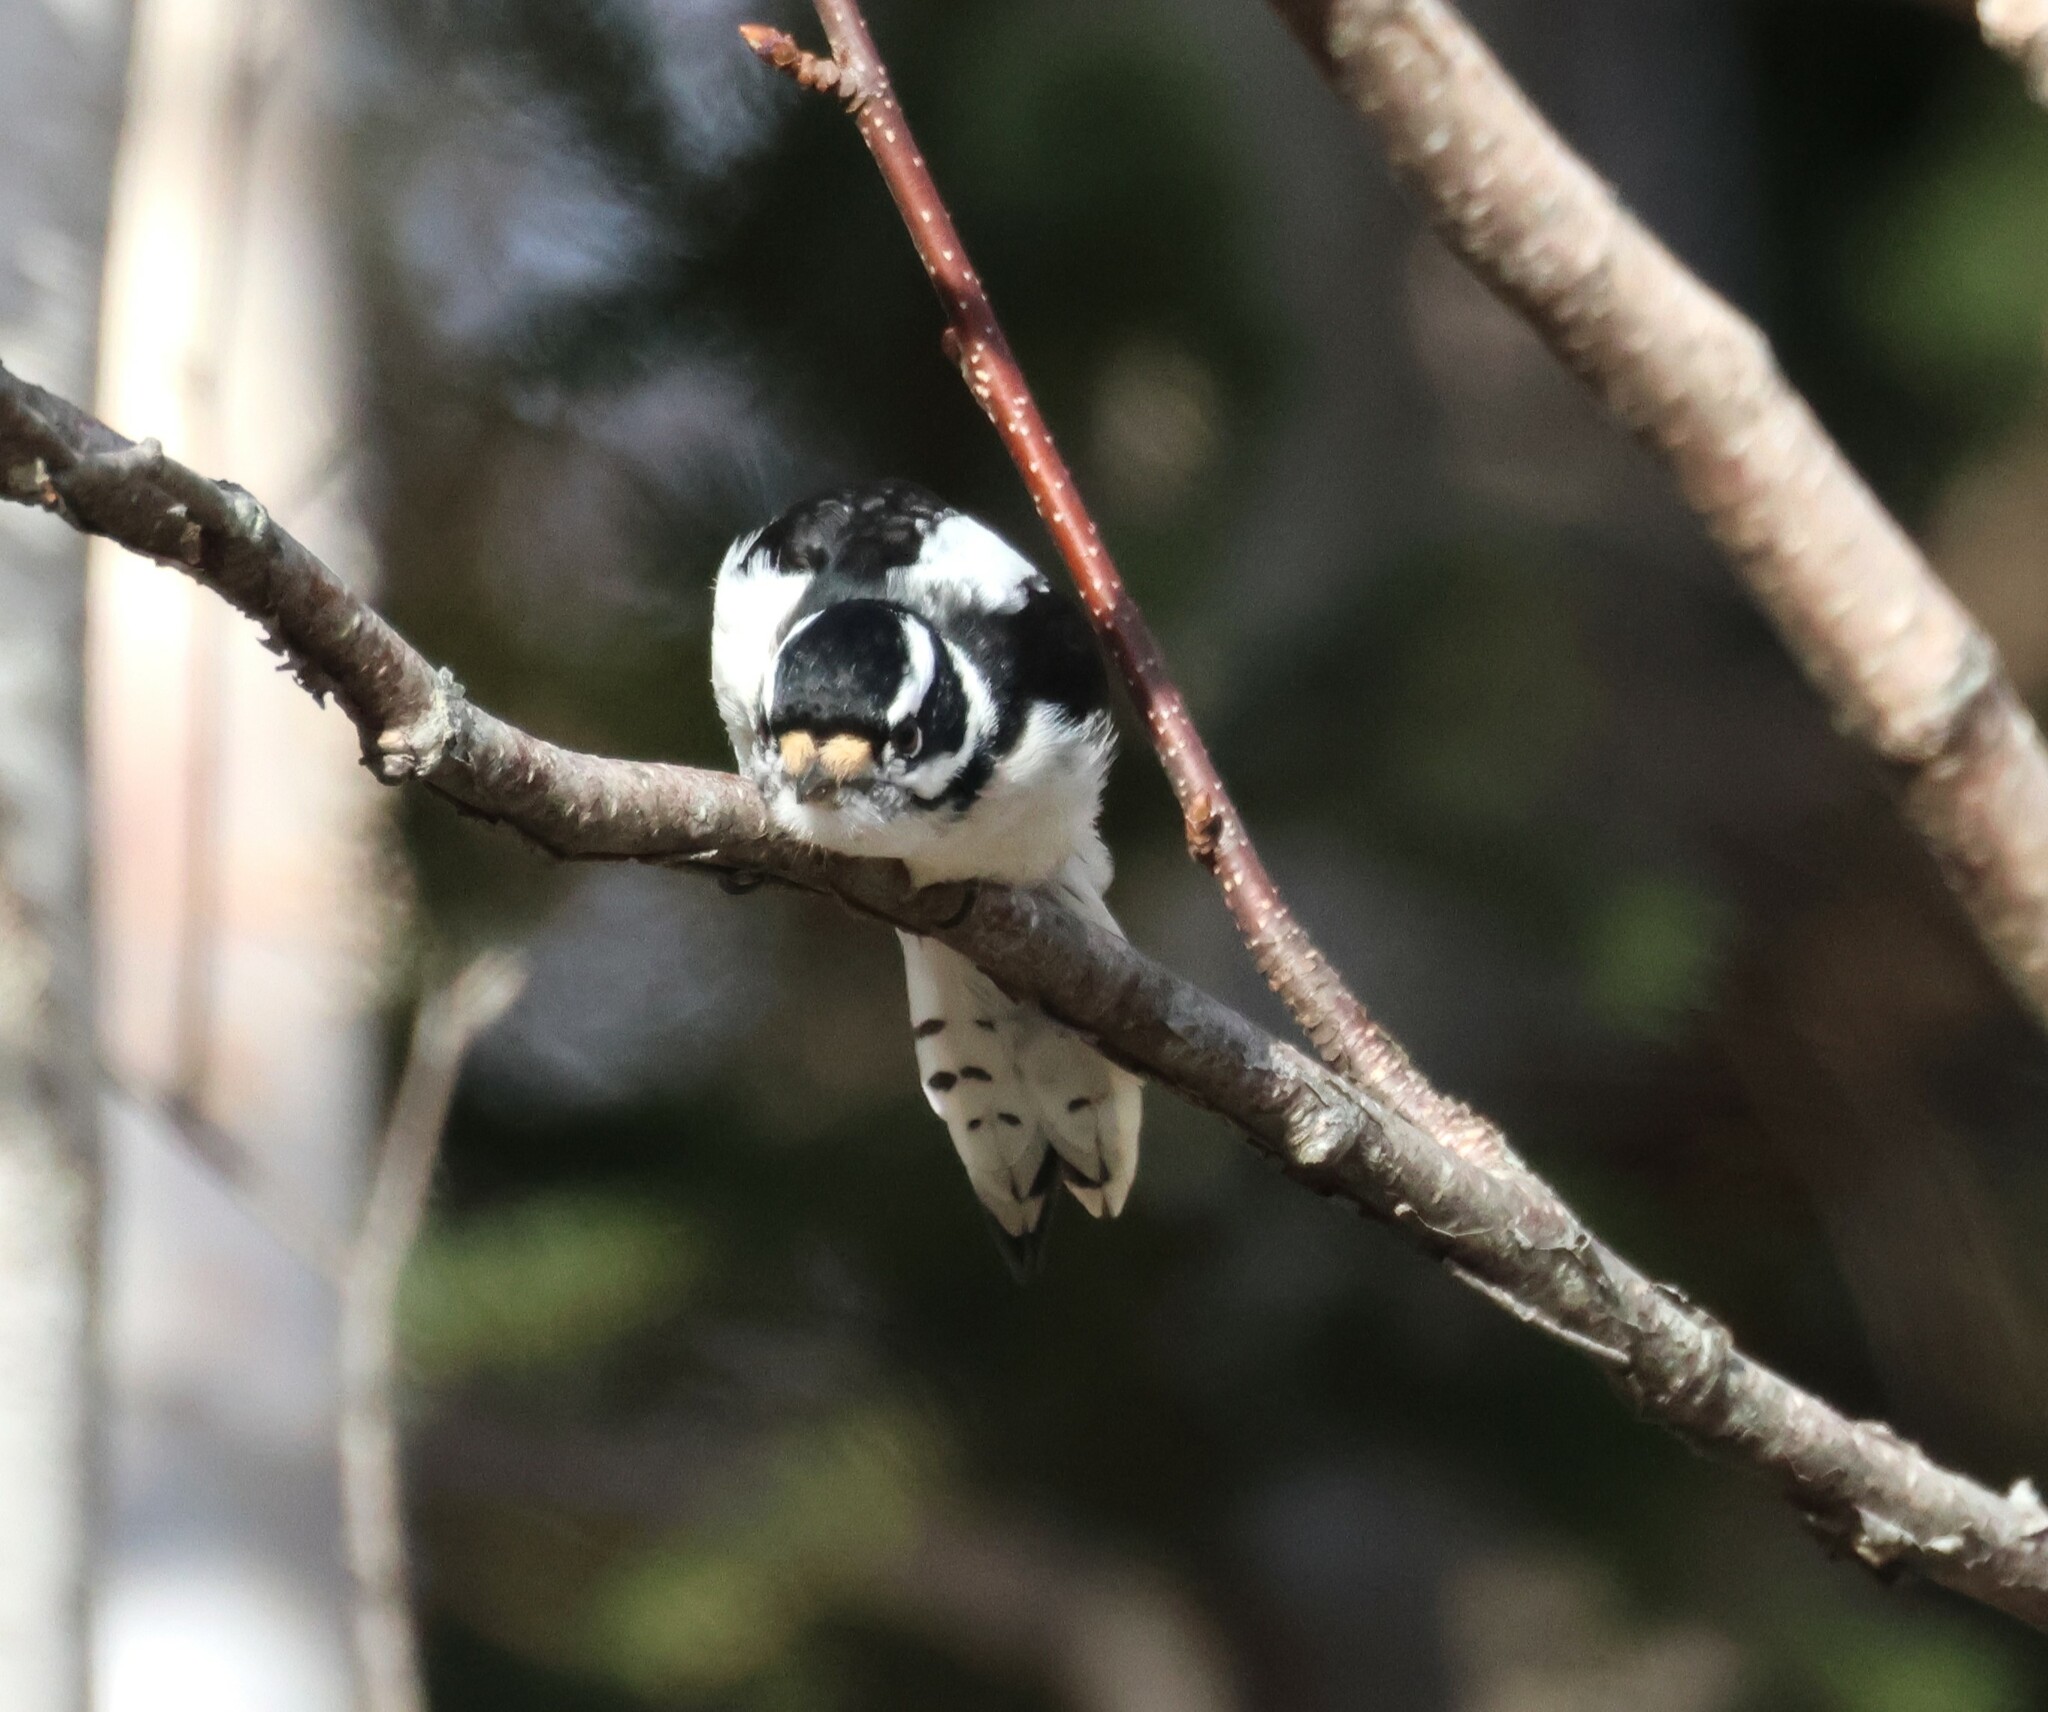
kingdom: Animalia
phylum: Chordata
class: Aves
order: Piciformes
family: Picidae
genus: Dryobates
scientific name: Dryobates pubescens
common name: Downy woodpecker
